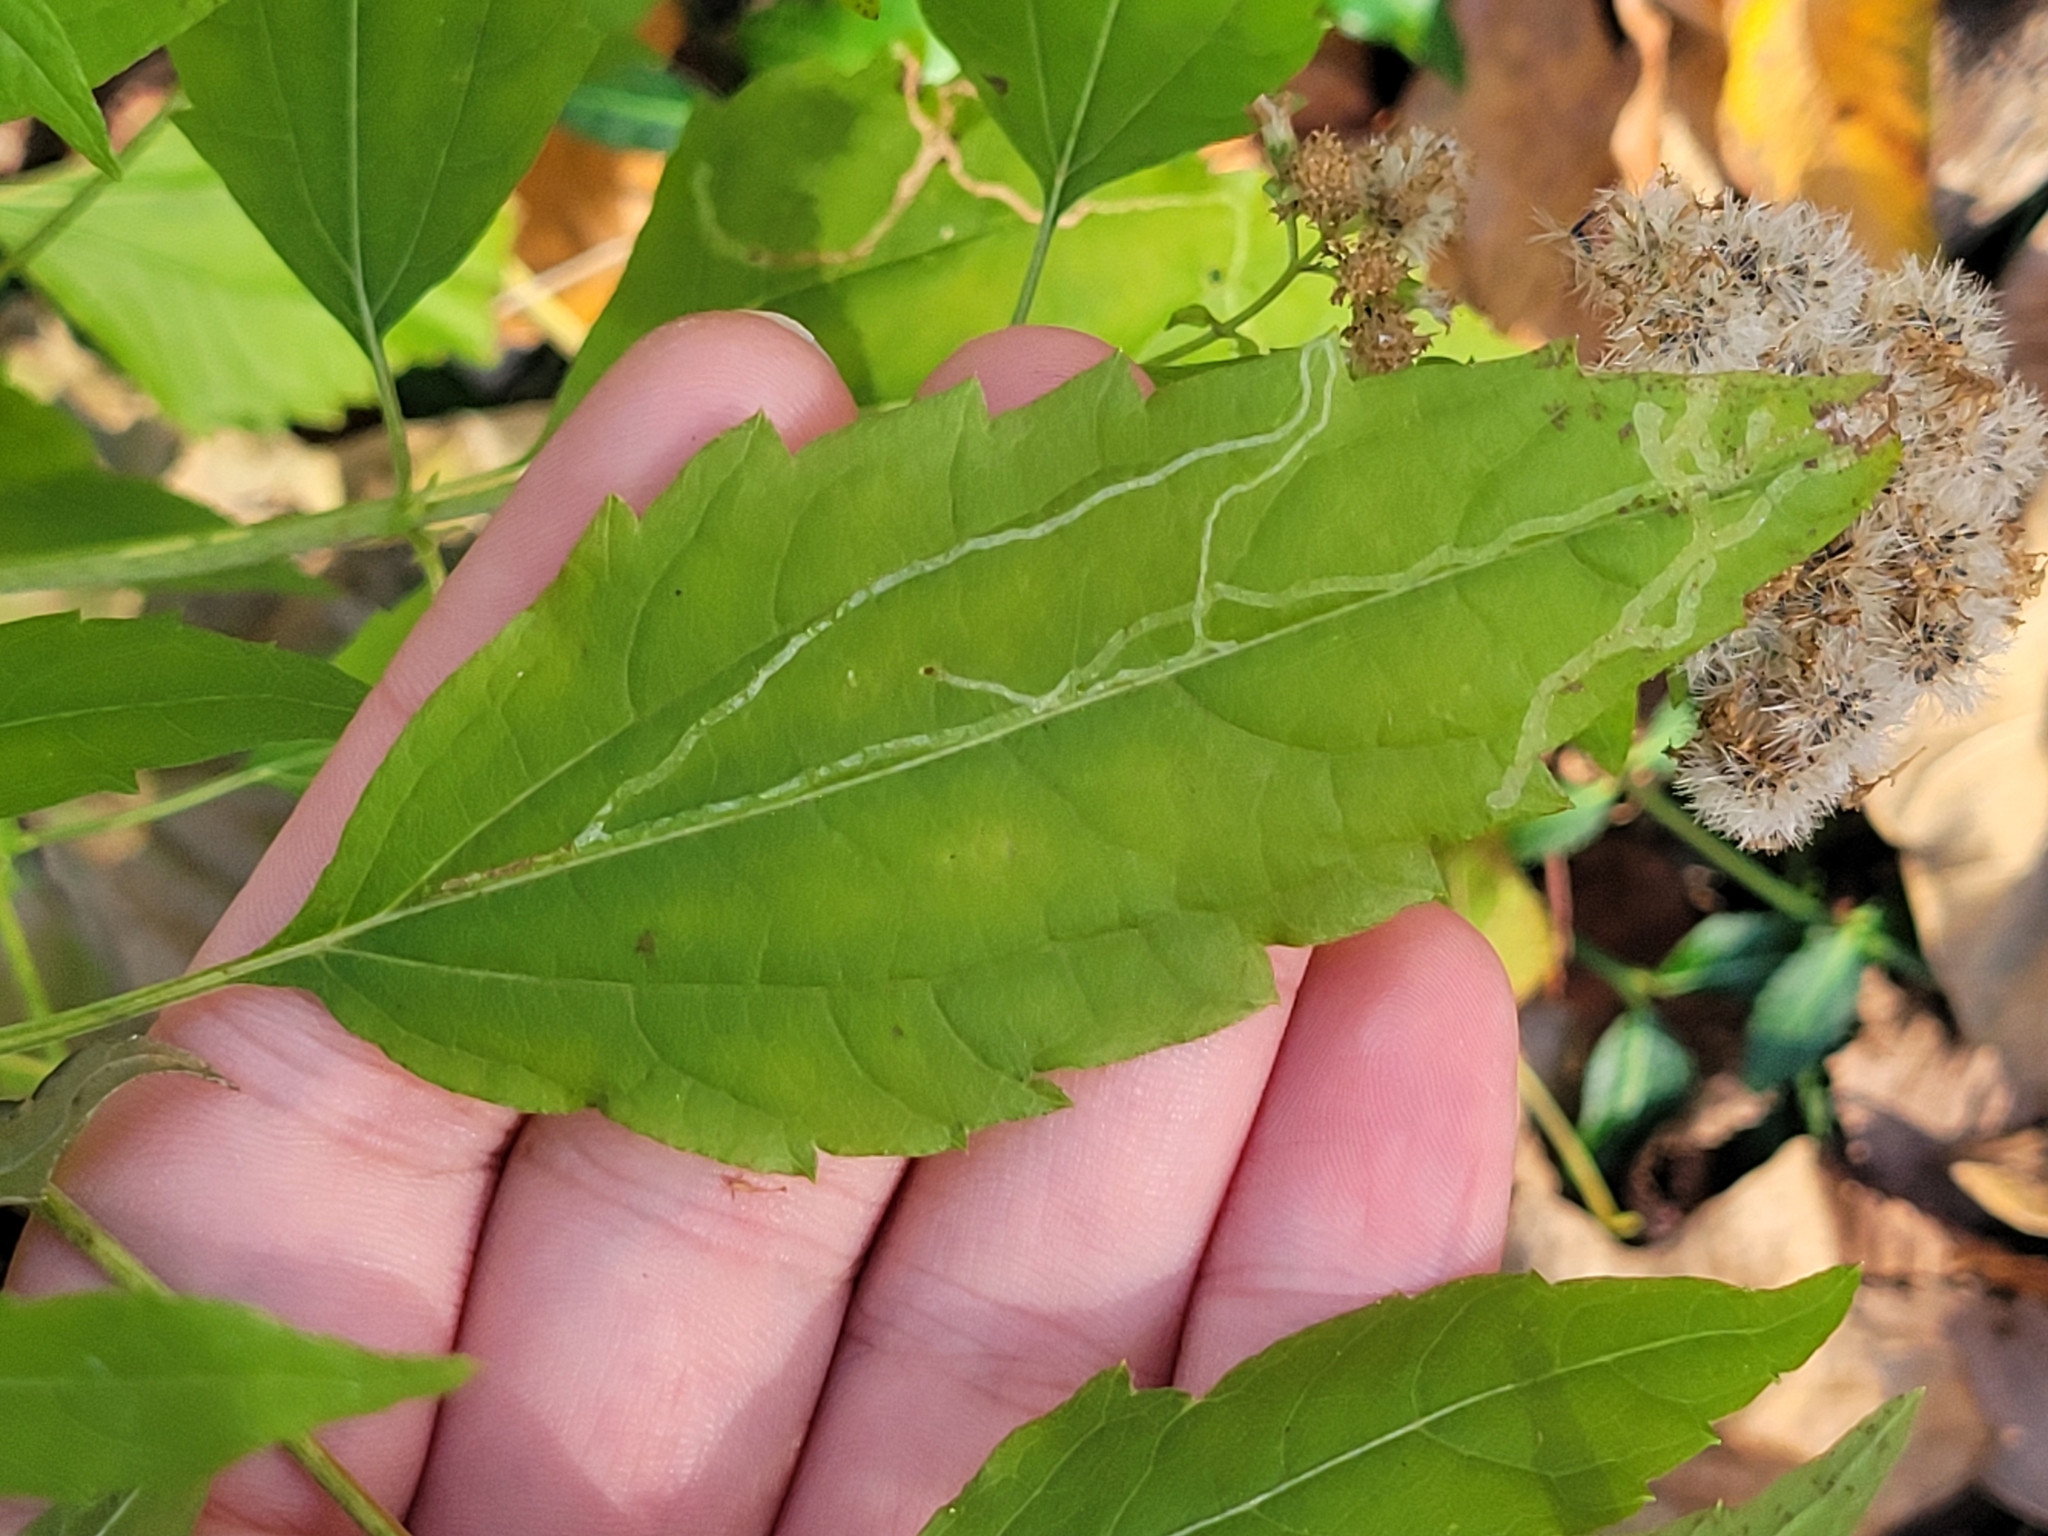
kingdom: Plantae
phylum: Tracheophyta
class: Magnoliopsida
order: Asterales
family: Asteraceae
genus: Ageratina
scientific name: Ageratina altissima
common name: White snakeroot
